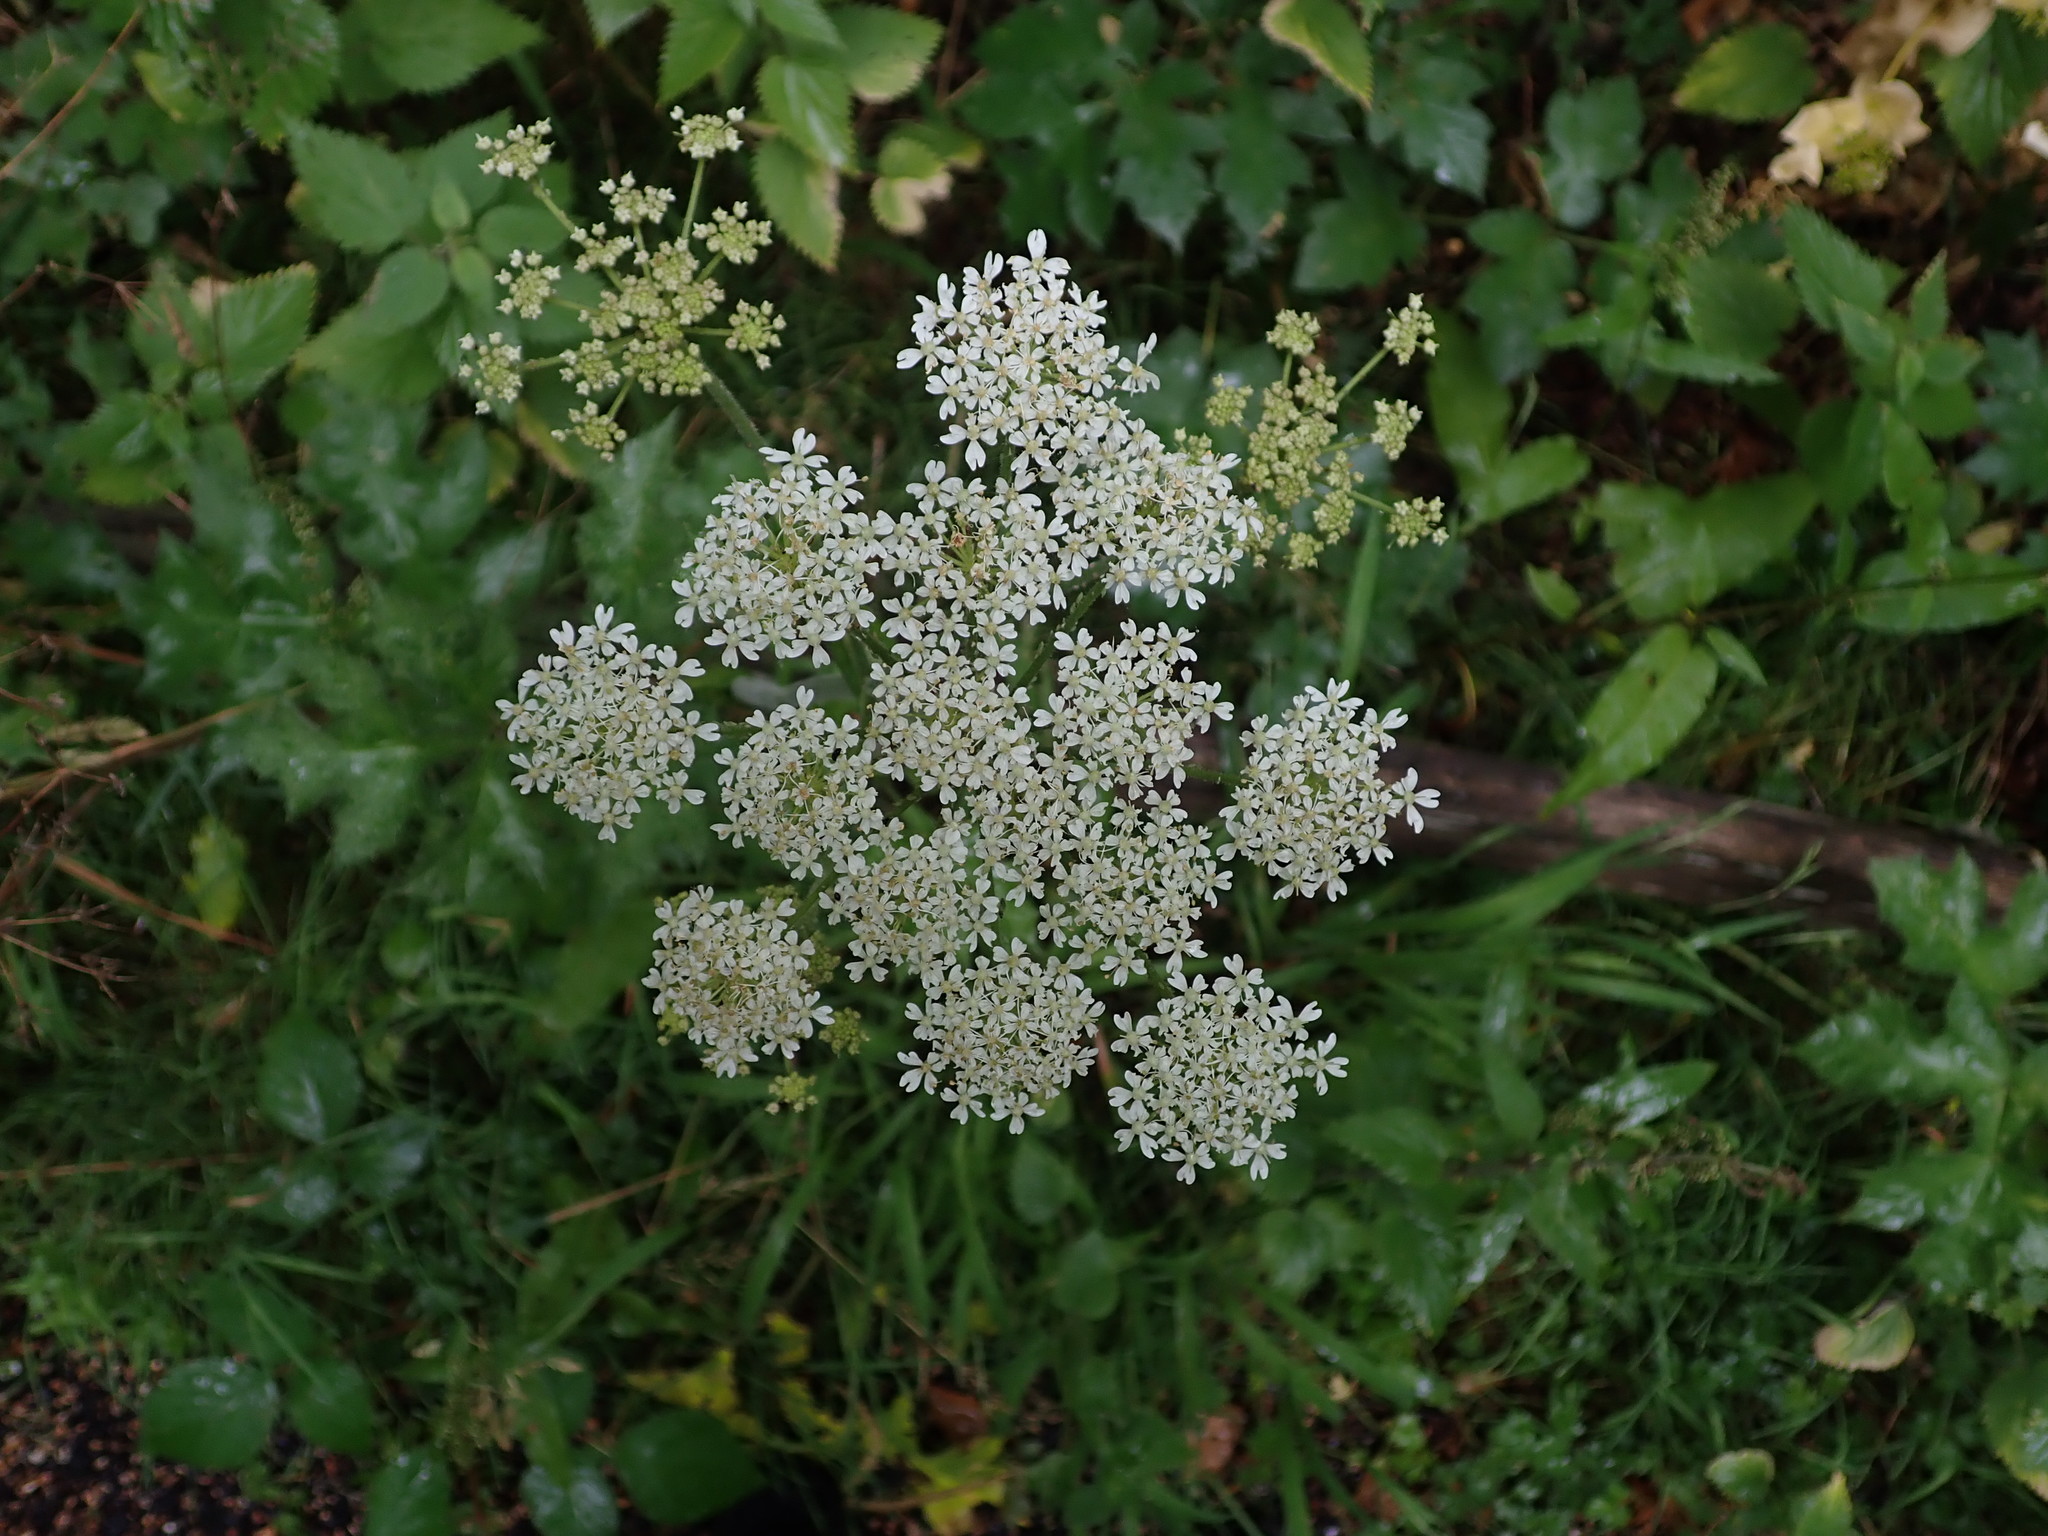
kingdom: Plantae
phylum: Tracheophyta
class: Magnoliopsida
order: Apiales
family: Apiaceae
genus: Heracleum
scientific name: Heracleum sphondylium
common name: Hogweed
